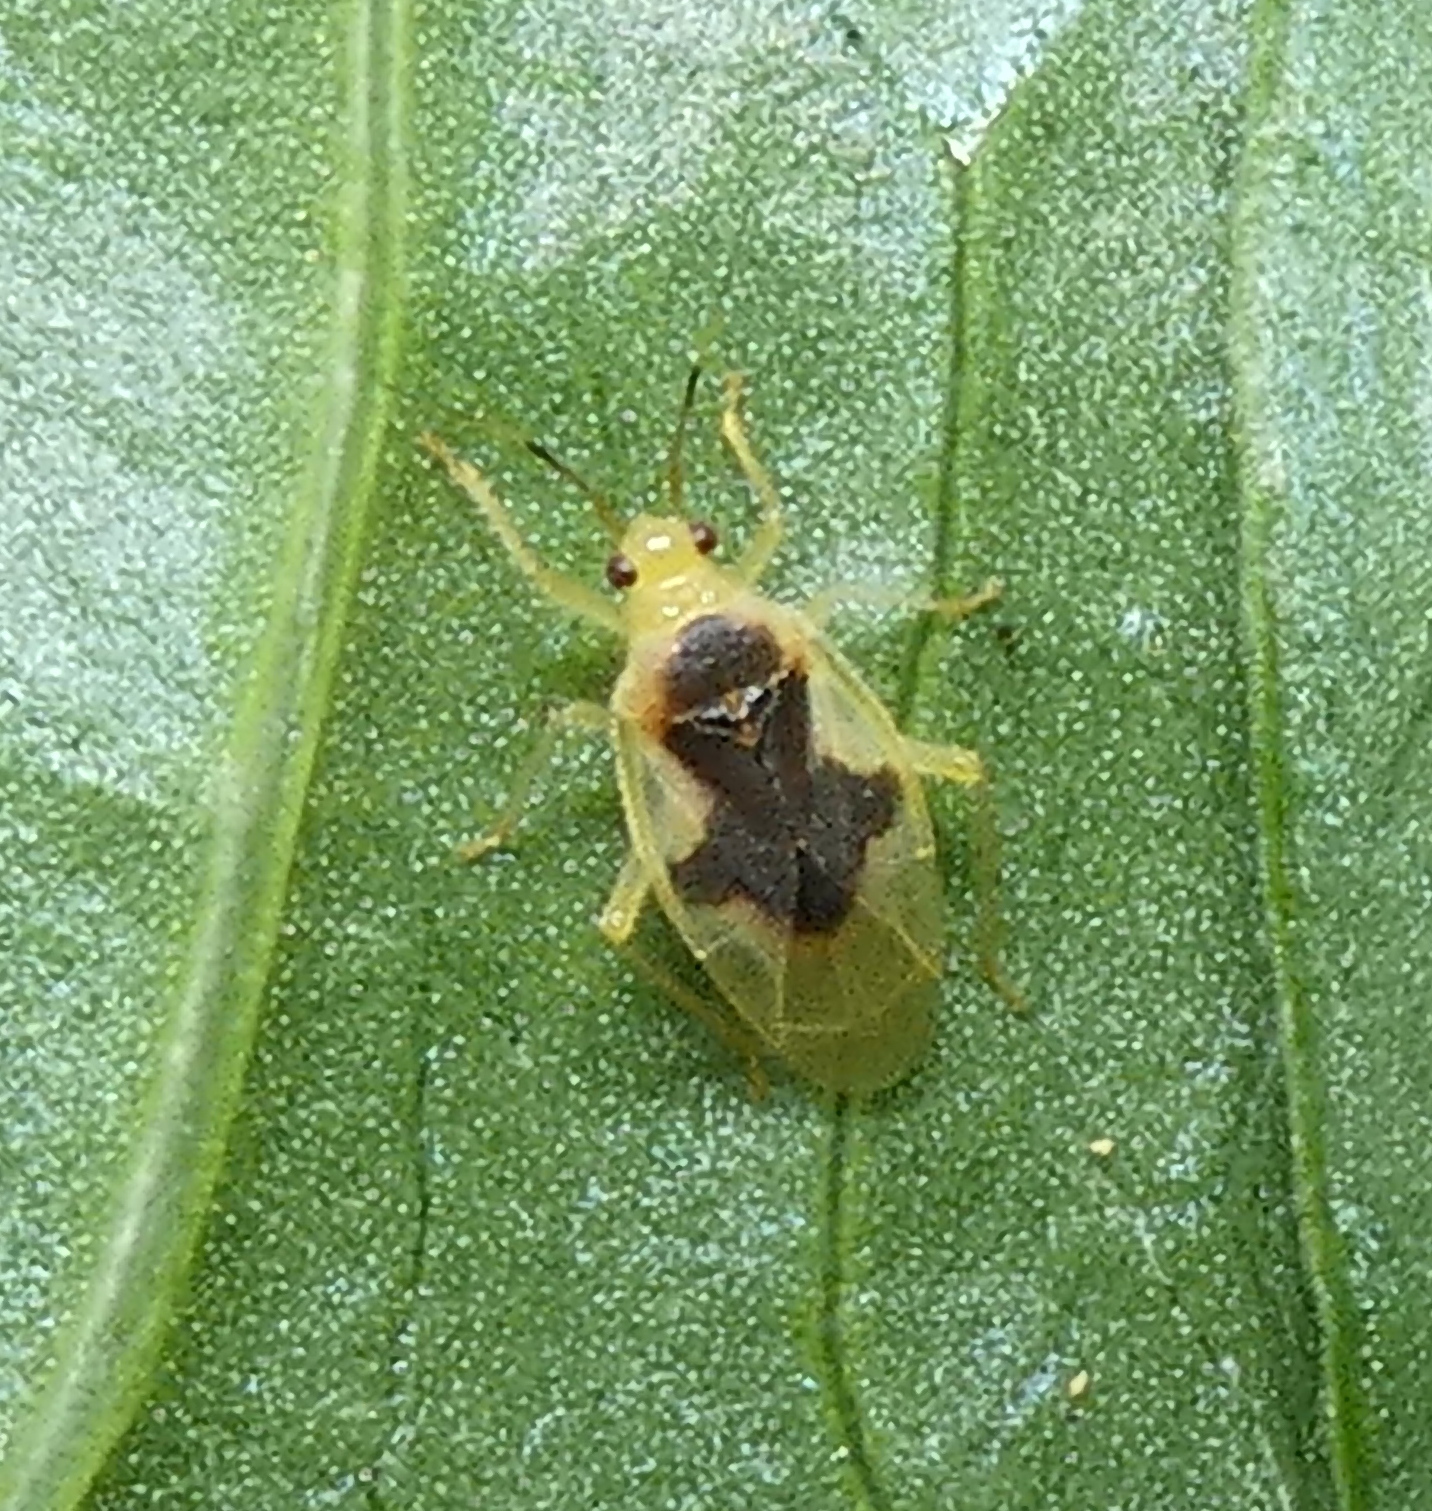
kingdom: Animalia
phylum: Arthropoda
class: Insecta
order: Hemiptera
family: Miridae
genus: Parafurius
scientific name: Parafurius discifer
